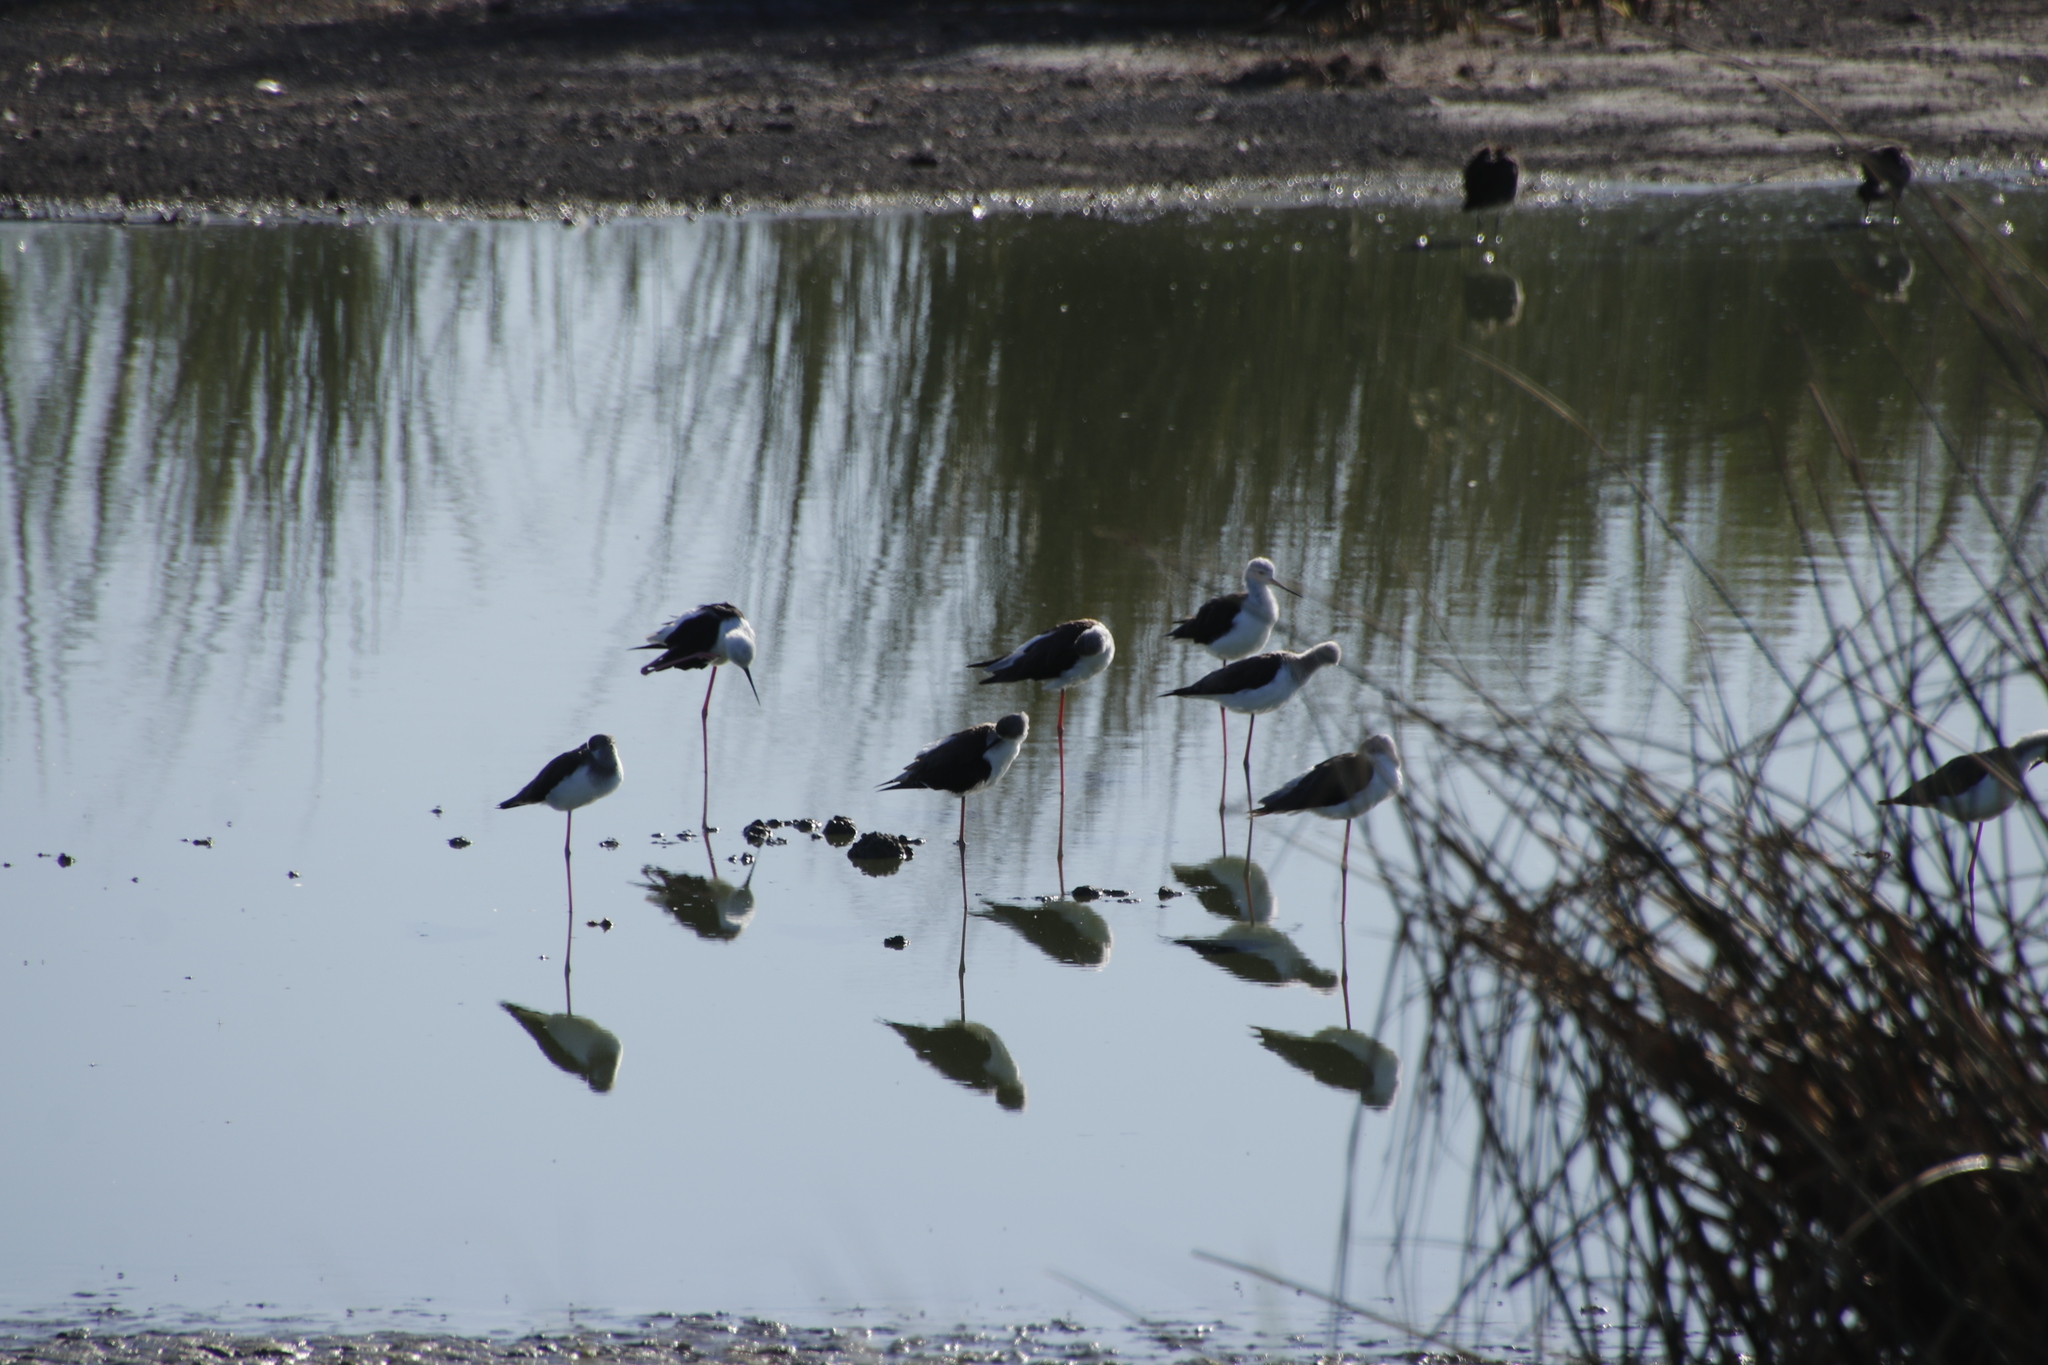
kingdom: Animalia
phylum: Chordata
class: Aves
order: Charadriiformes
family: Recurvirostridae
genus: Himantopus
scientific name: Himantopus himantopus
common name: Black-winged stilt
